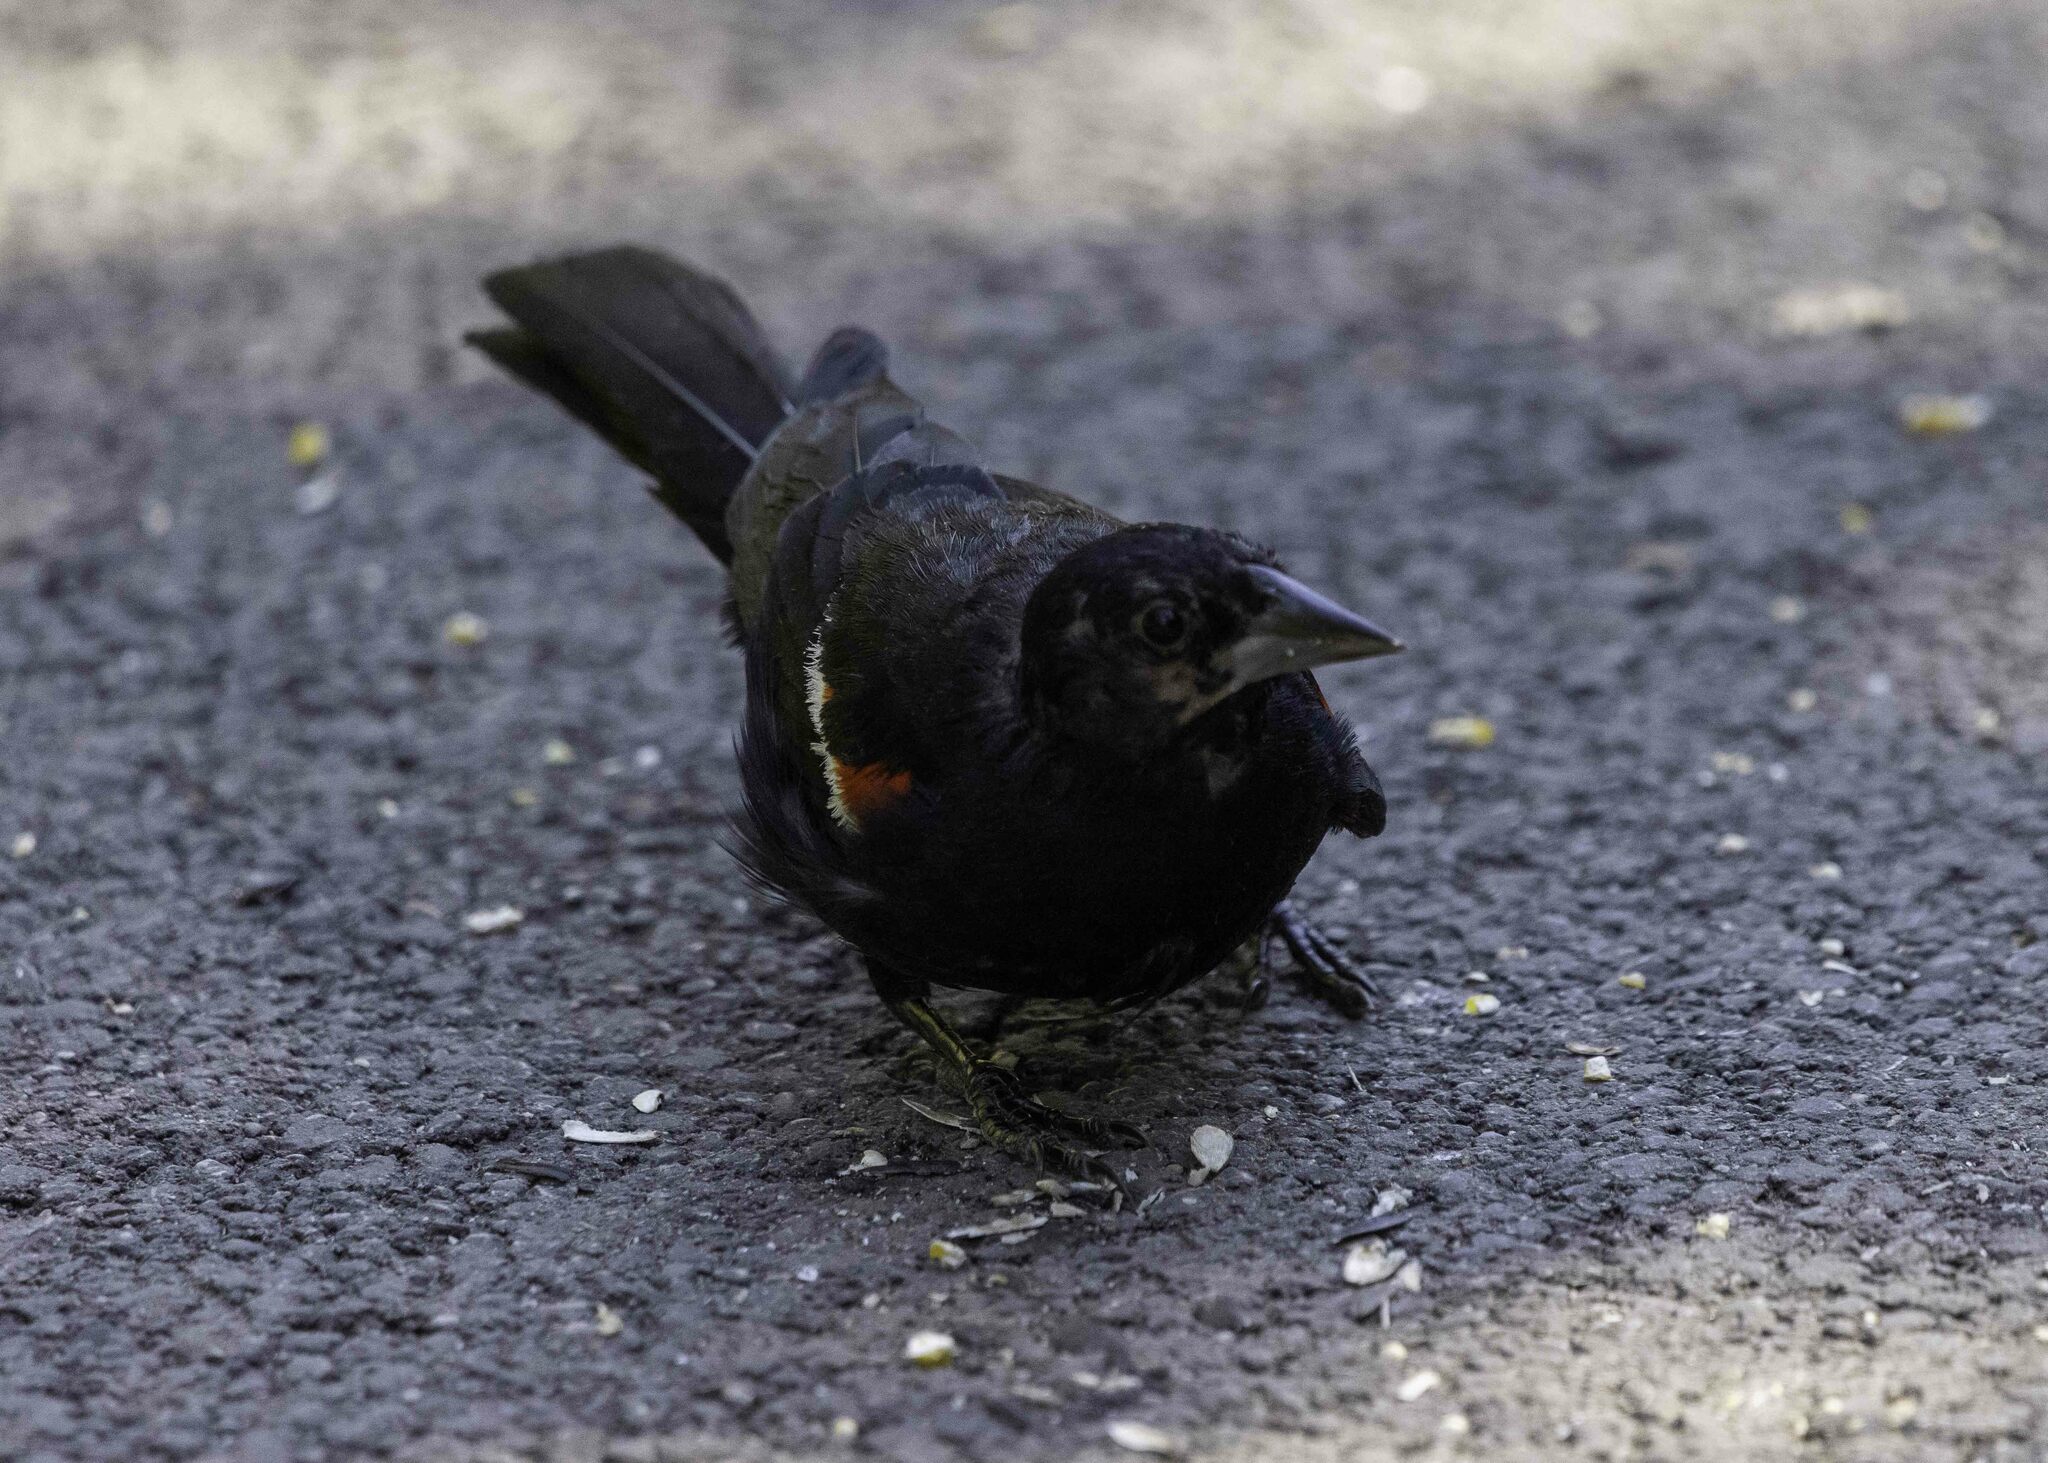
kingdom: Animalia
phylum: Chordata
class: Aves
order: Passeriformes
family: Icteridae
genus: Agelaius
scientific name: Agelaius phoeniceus
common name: Red-winged blackbird
